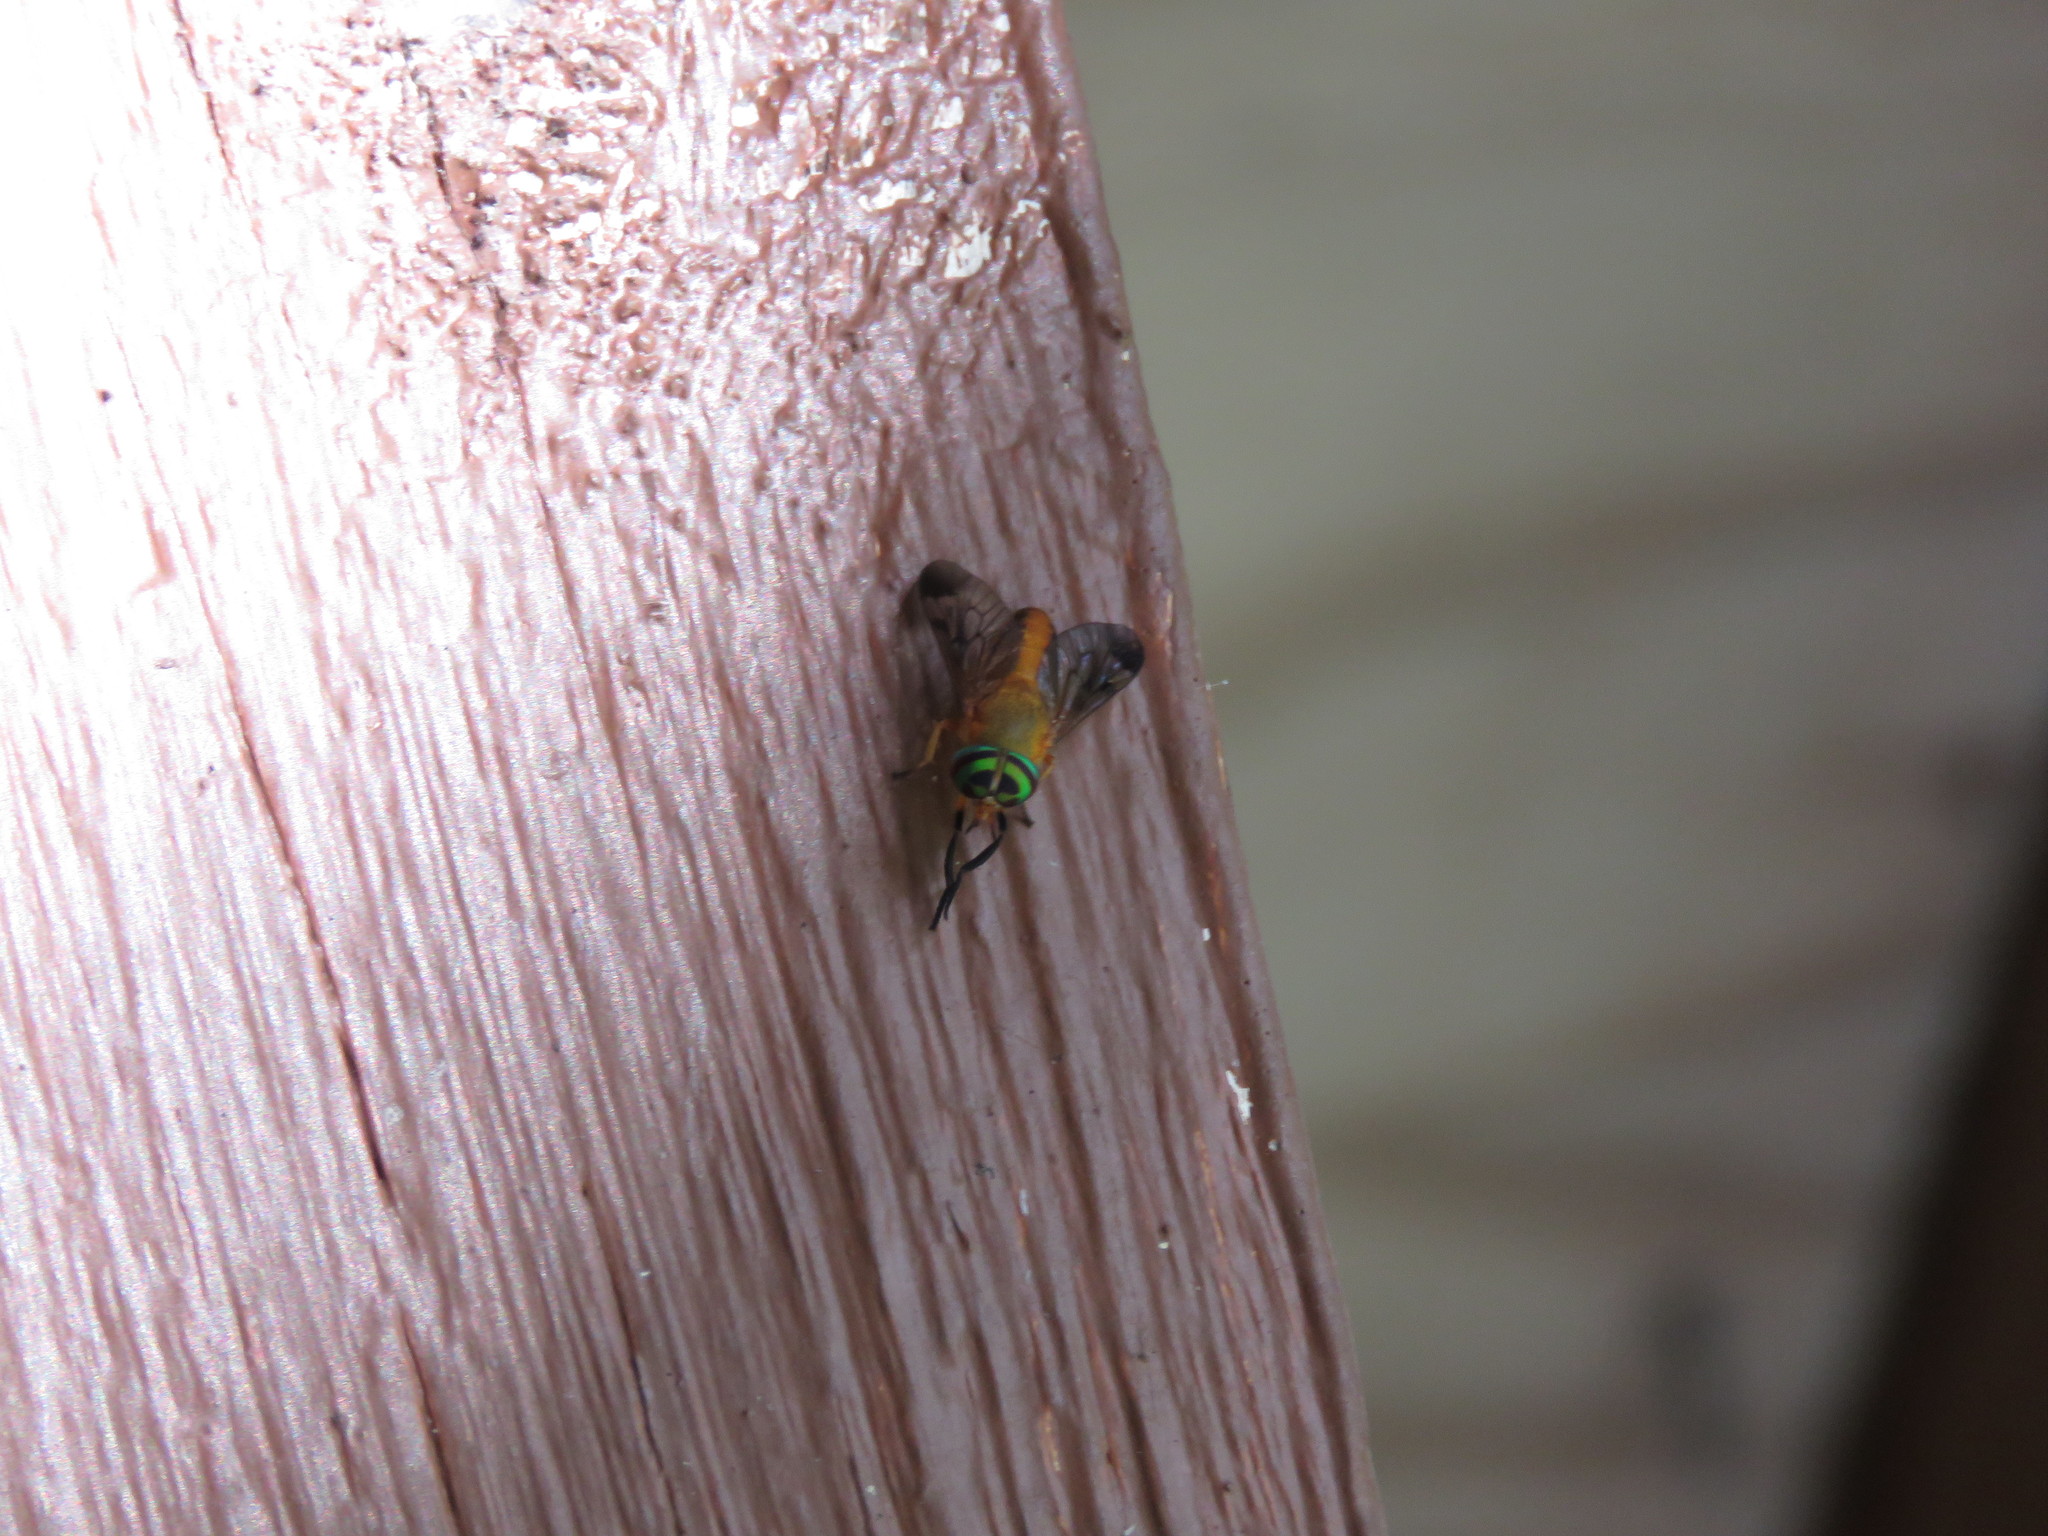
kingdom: Animalia
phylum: Arthropoda
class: Insecta
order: Diptera
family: Tabanidae
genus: Diachlorus
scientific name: Diachlorus ferrugatus
